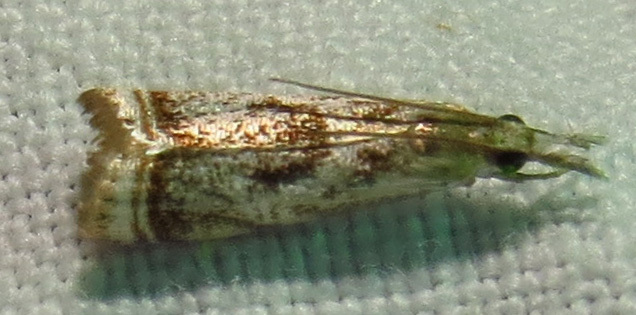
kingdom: Animalia
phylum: Arthropoda
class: Insecta
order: Lepidoptera
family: Crambidae
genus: Microcrambus
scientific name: Microcrambus elegans
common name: Elegant grass-veneer
